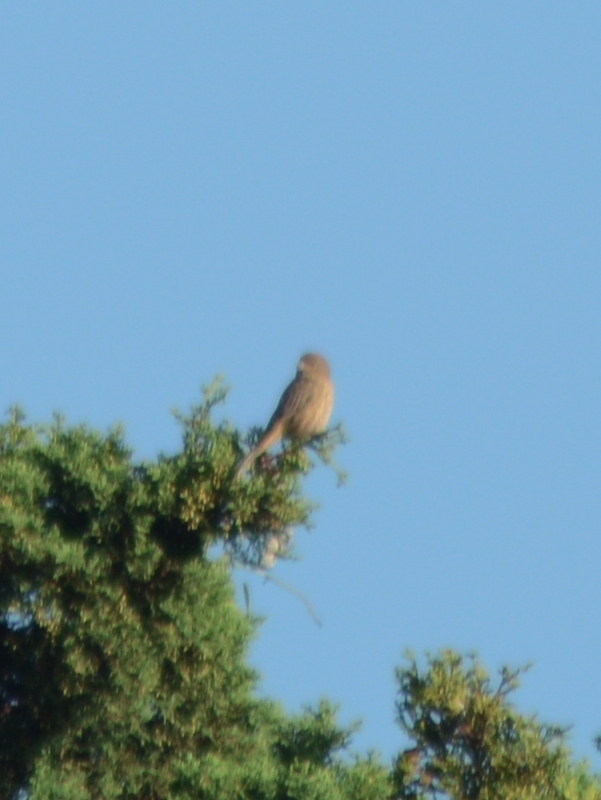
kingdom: Animalia
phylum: Chordata
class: Aves
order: Passeriformes
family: Fringillidae
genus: Haemorhous
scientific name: Haemorhous mexicanus
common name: House finch
